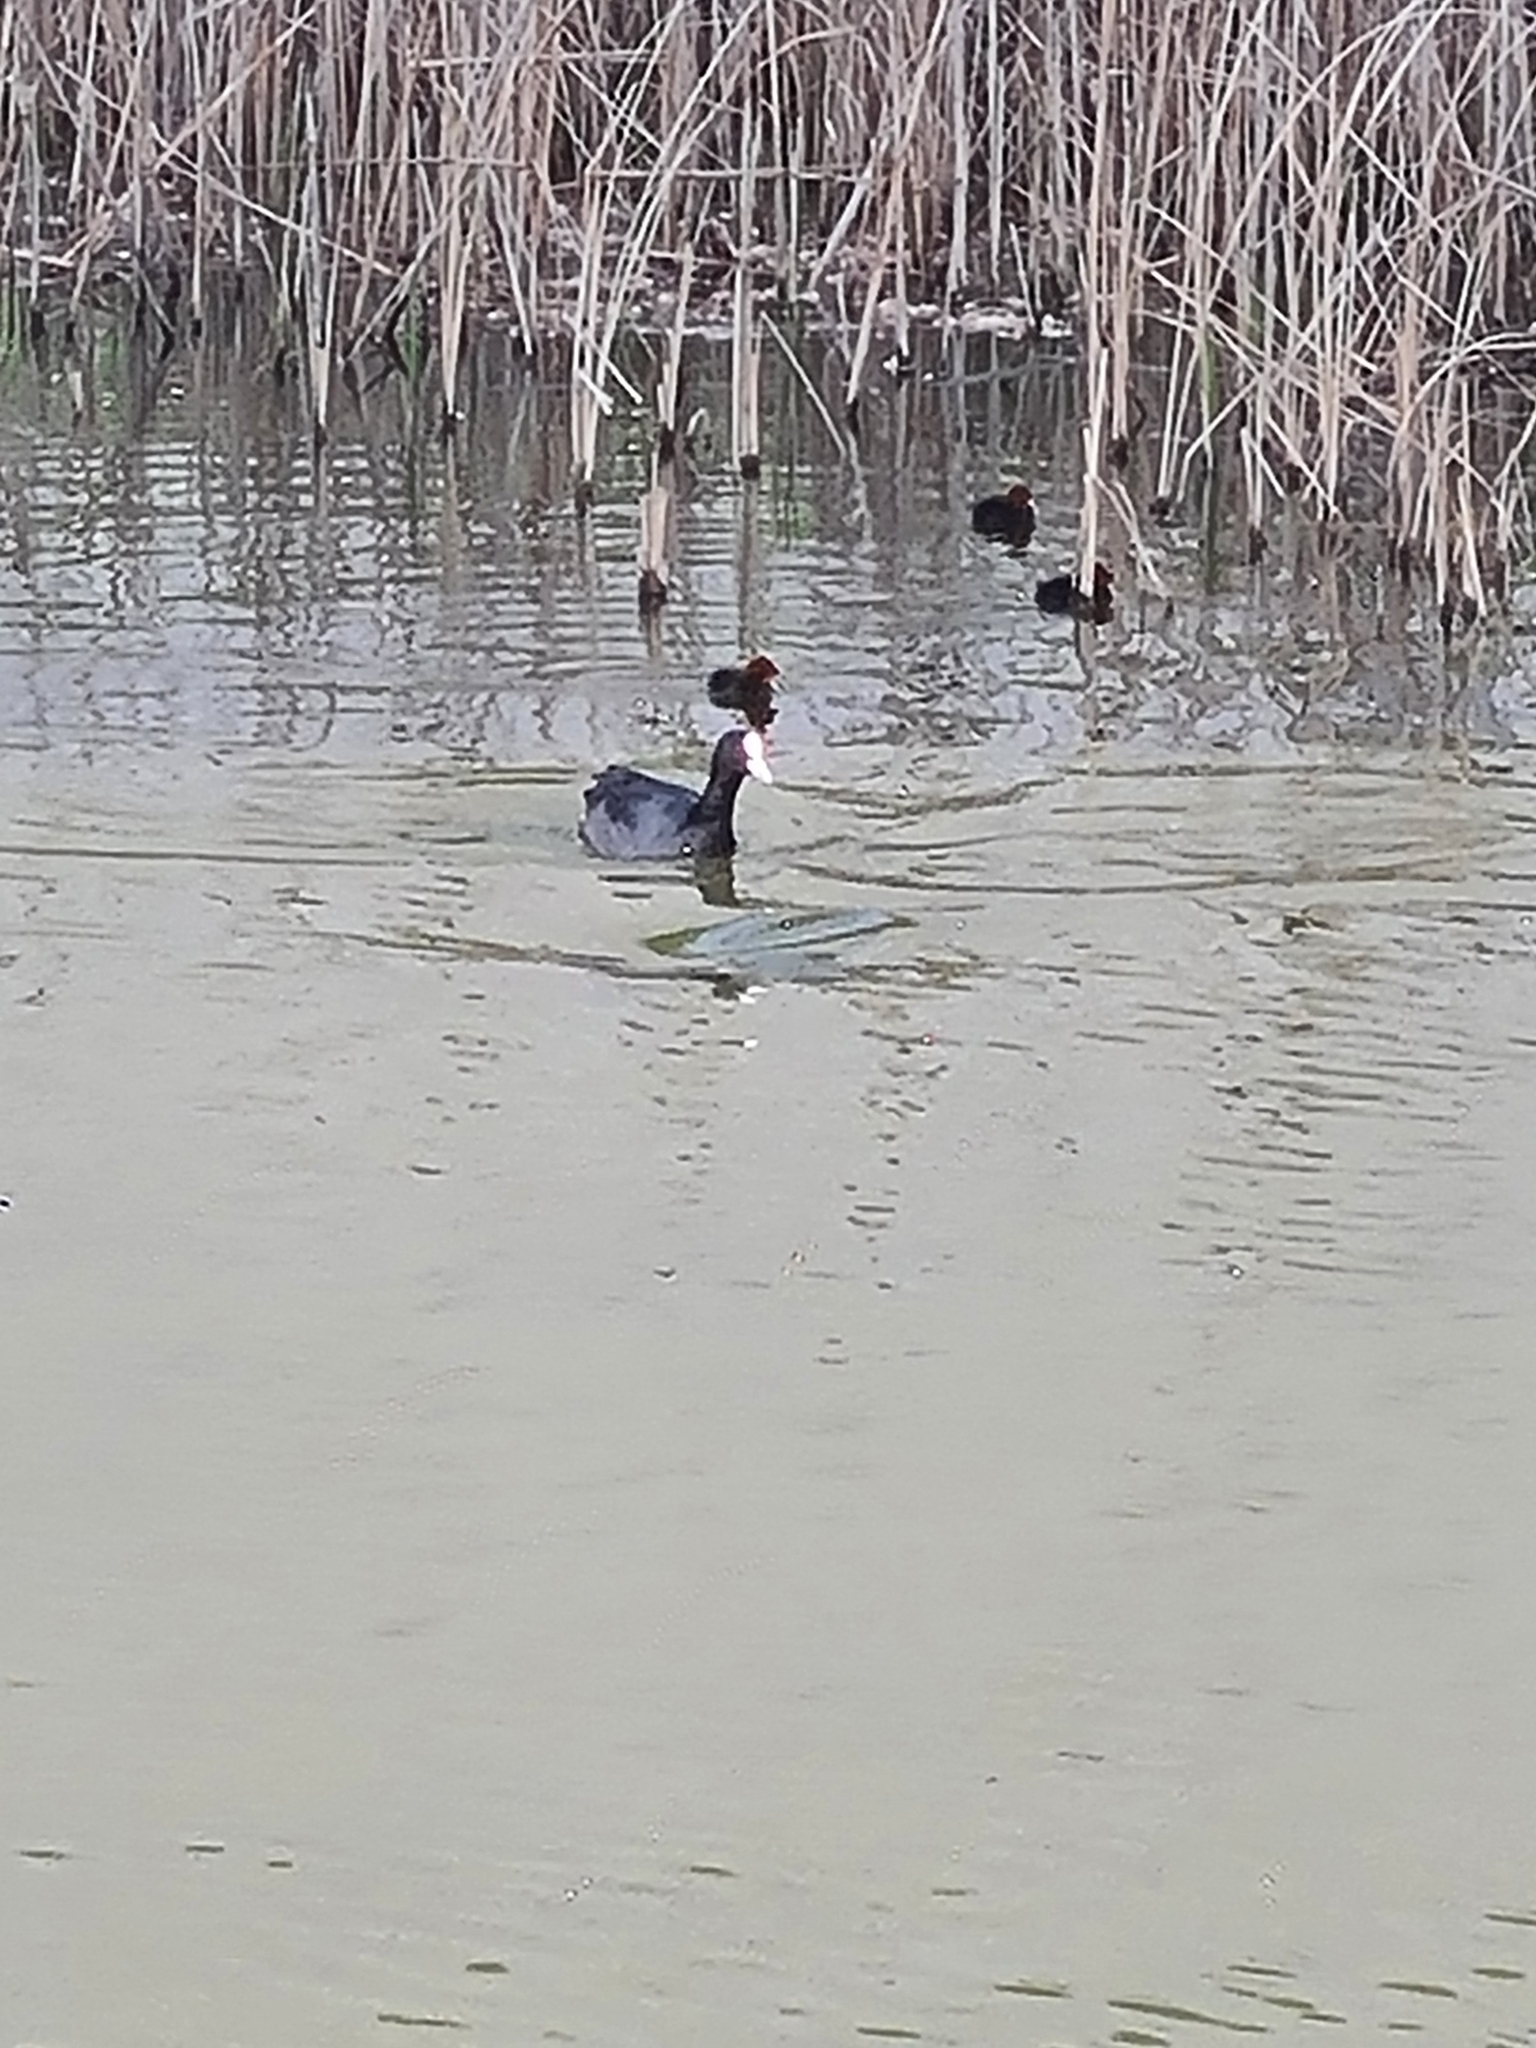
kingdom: Animalia
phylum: Chordata
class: Aves
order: Gruiformes
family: Rallidae
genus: Fulica
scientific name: Fulica atra
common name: Eurasian coot
